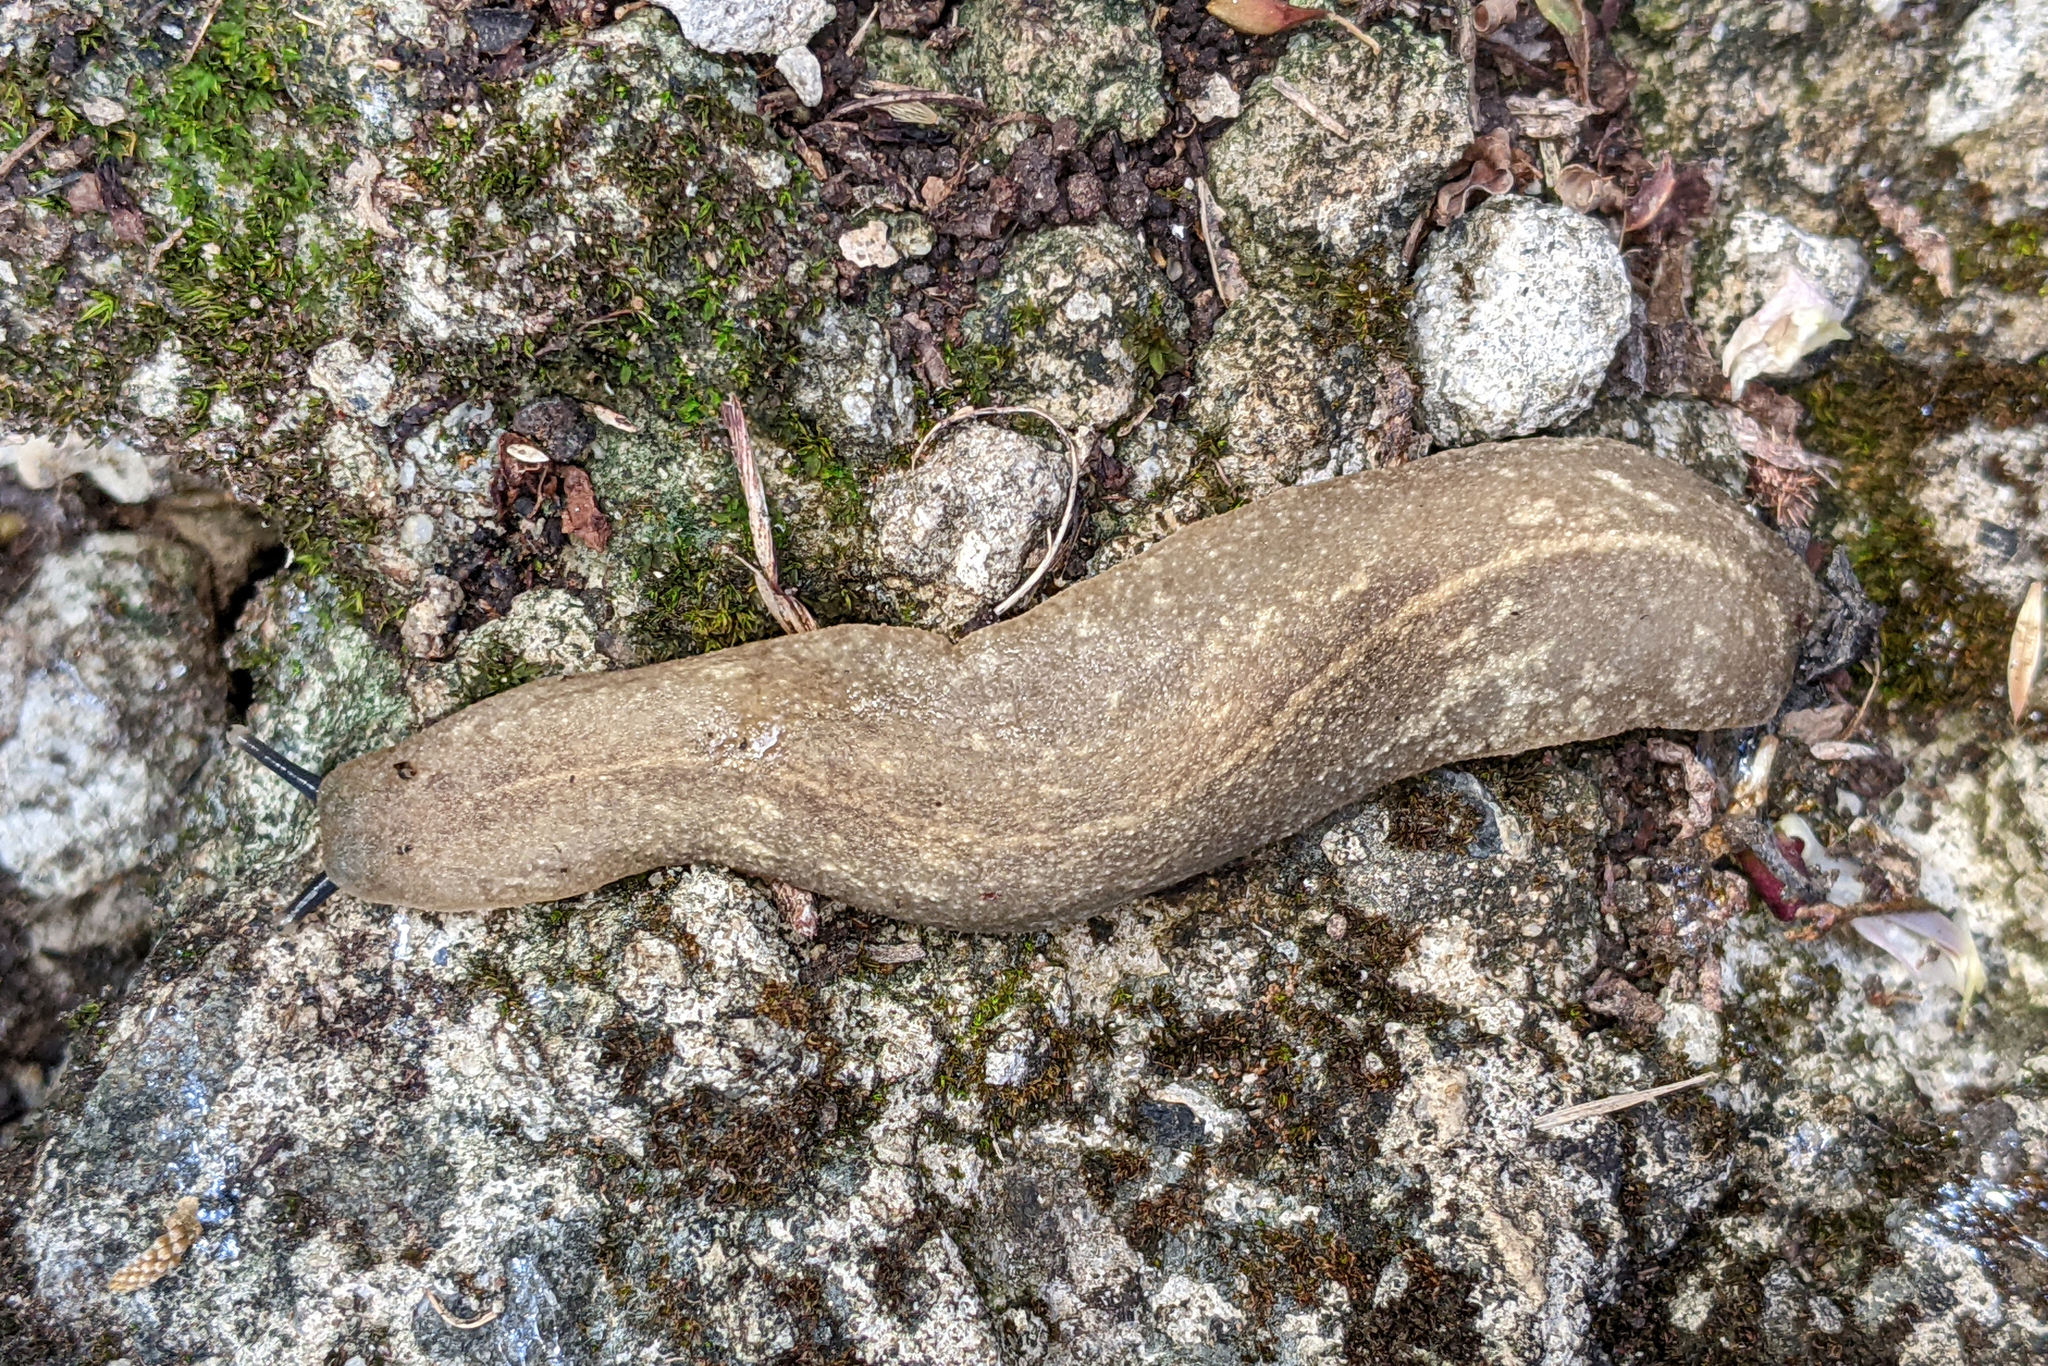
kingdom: Animalia
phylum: Mollusca
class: Gastropoda
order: Systellommatophora
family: Veronicellidae
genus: Leidyula
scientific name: Leidyula sloanii
